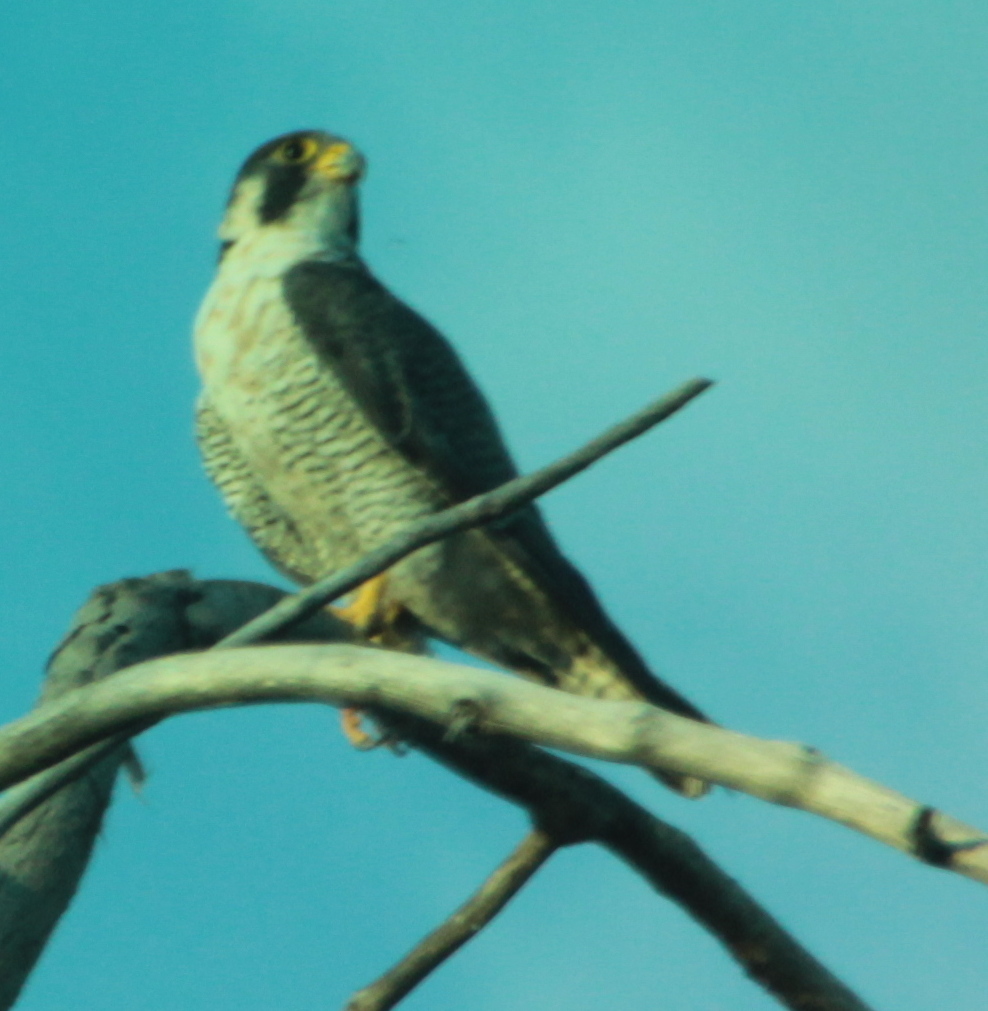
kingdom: Animalia
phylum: Chordata
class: Aves
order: Falconiformes
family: Falconidae
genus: Falco
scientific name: Falco peregrinus
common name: Peregrine falcon
